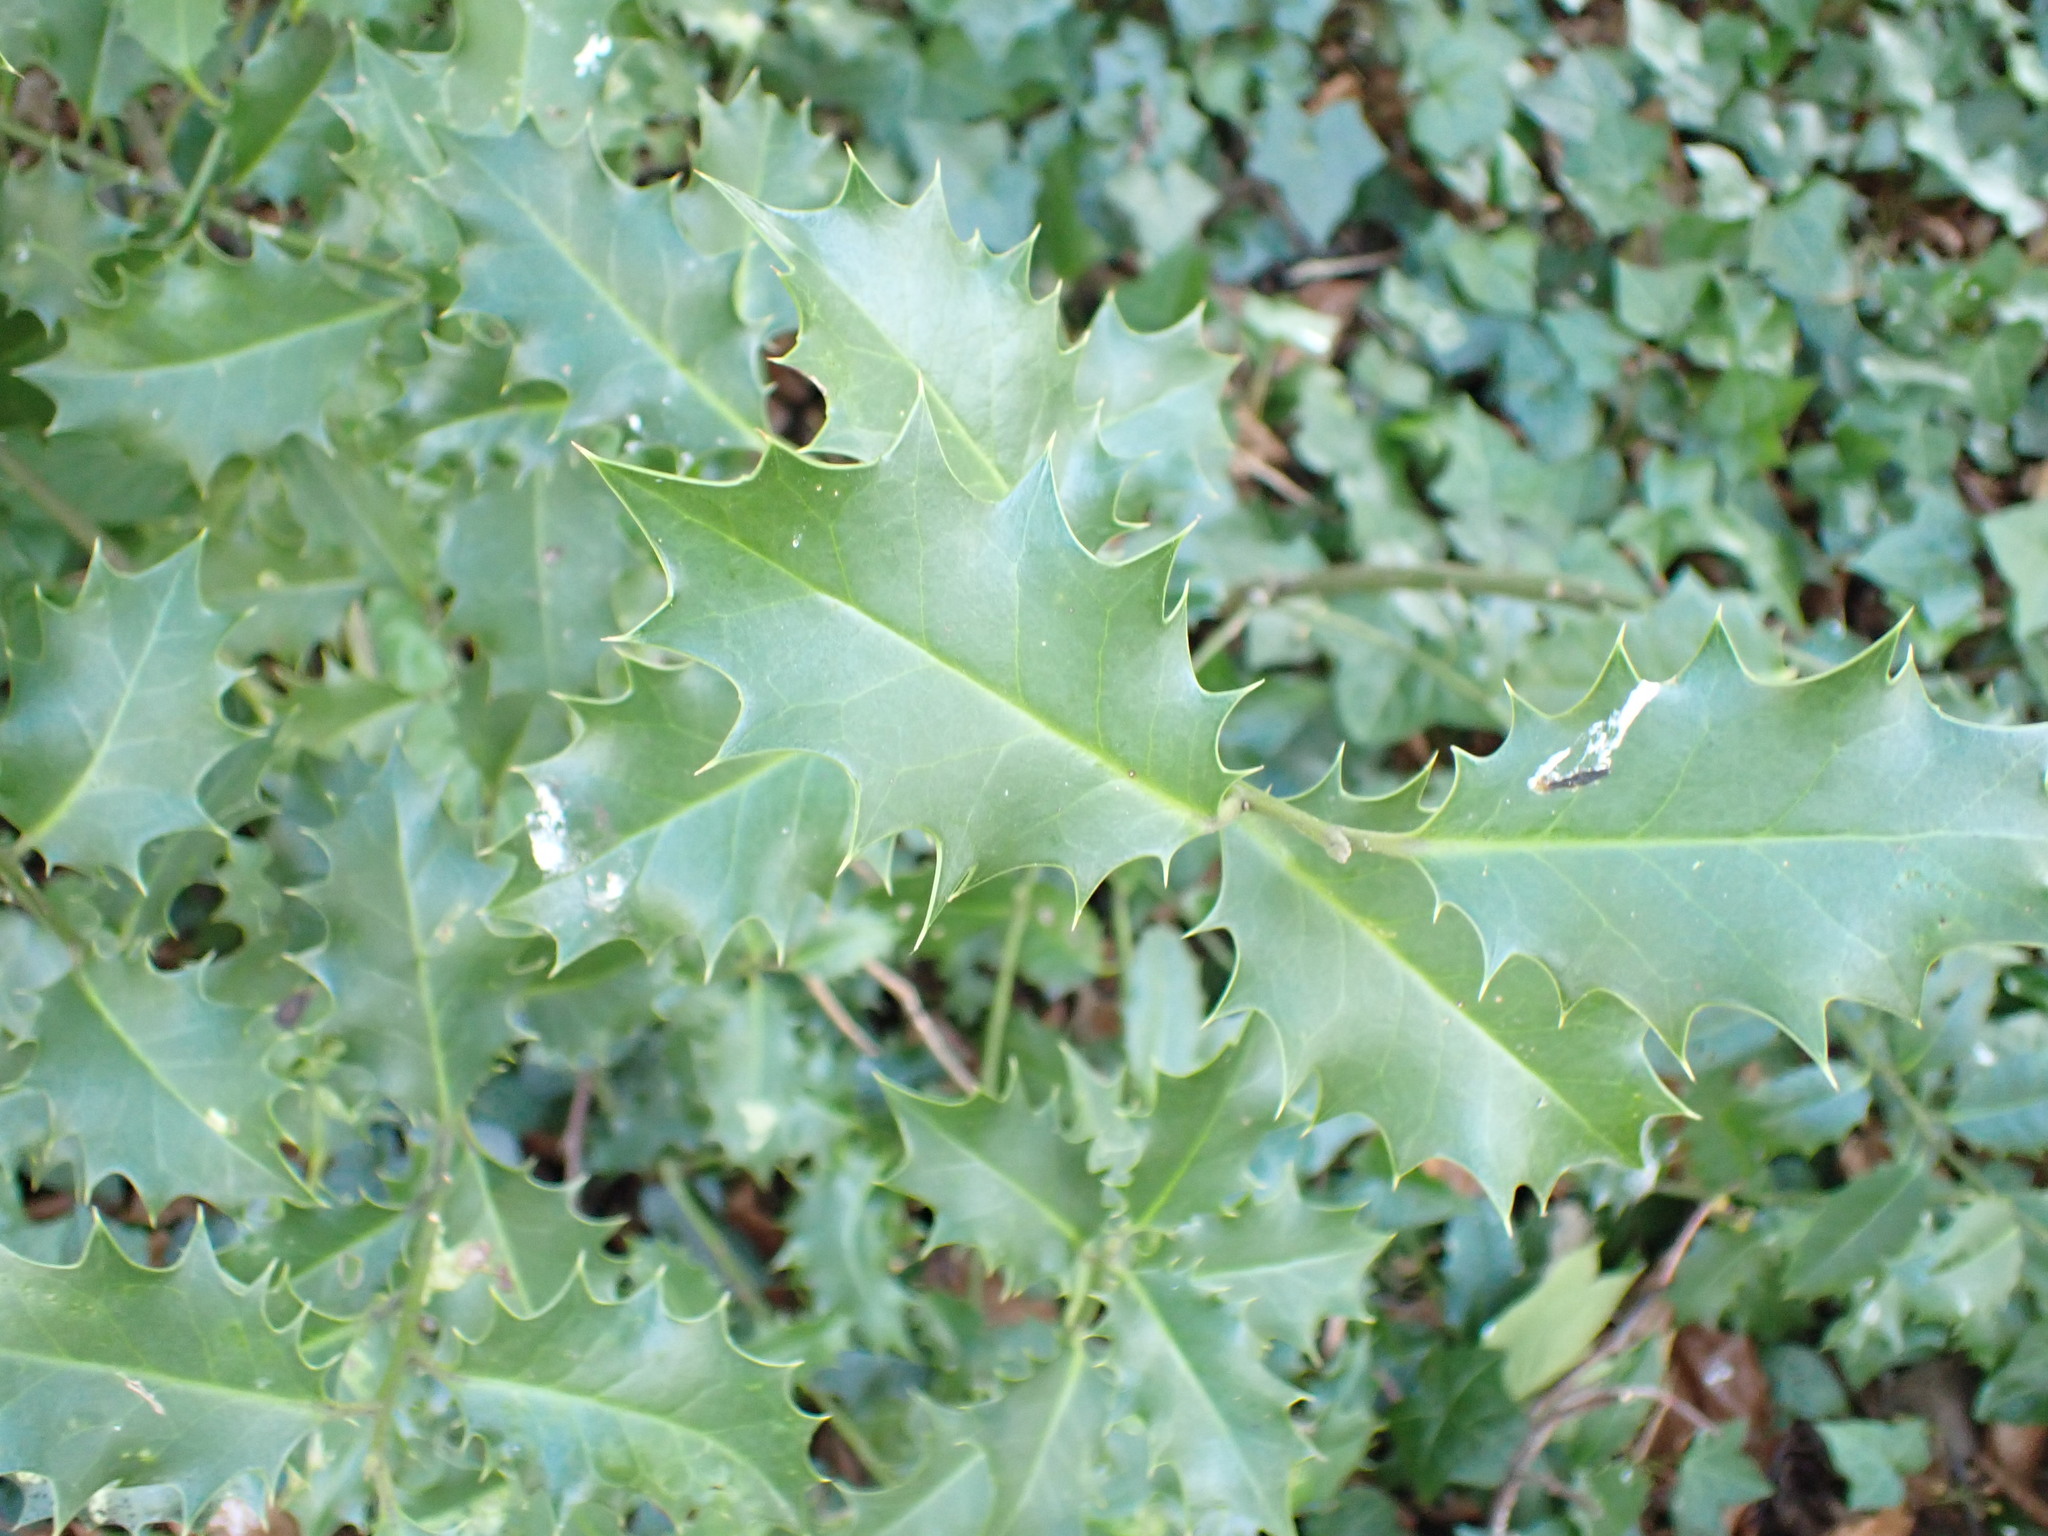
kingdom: Plantae
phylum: Tracheophyta
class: Magnoliopsida
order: Aquifoliales
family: Aquifoliaceae
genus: Ilex
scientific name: Ilex aquifolium
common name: English holly
